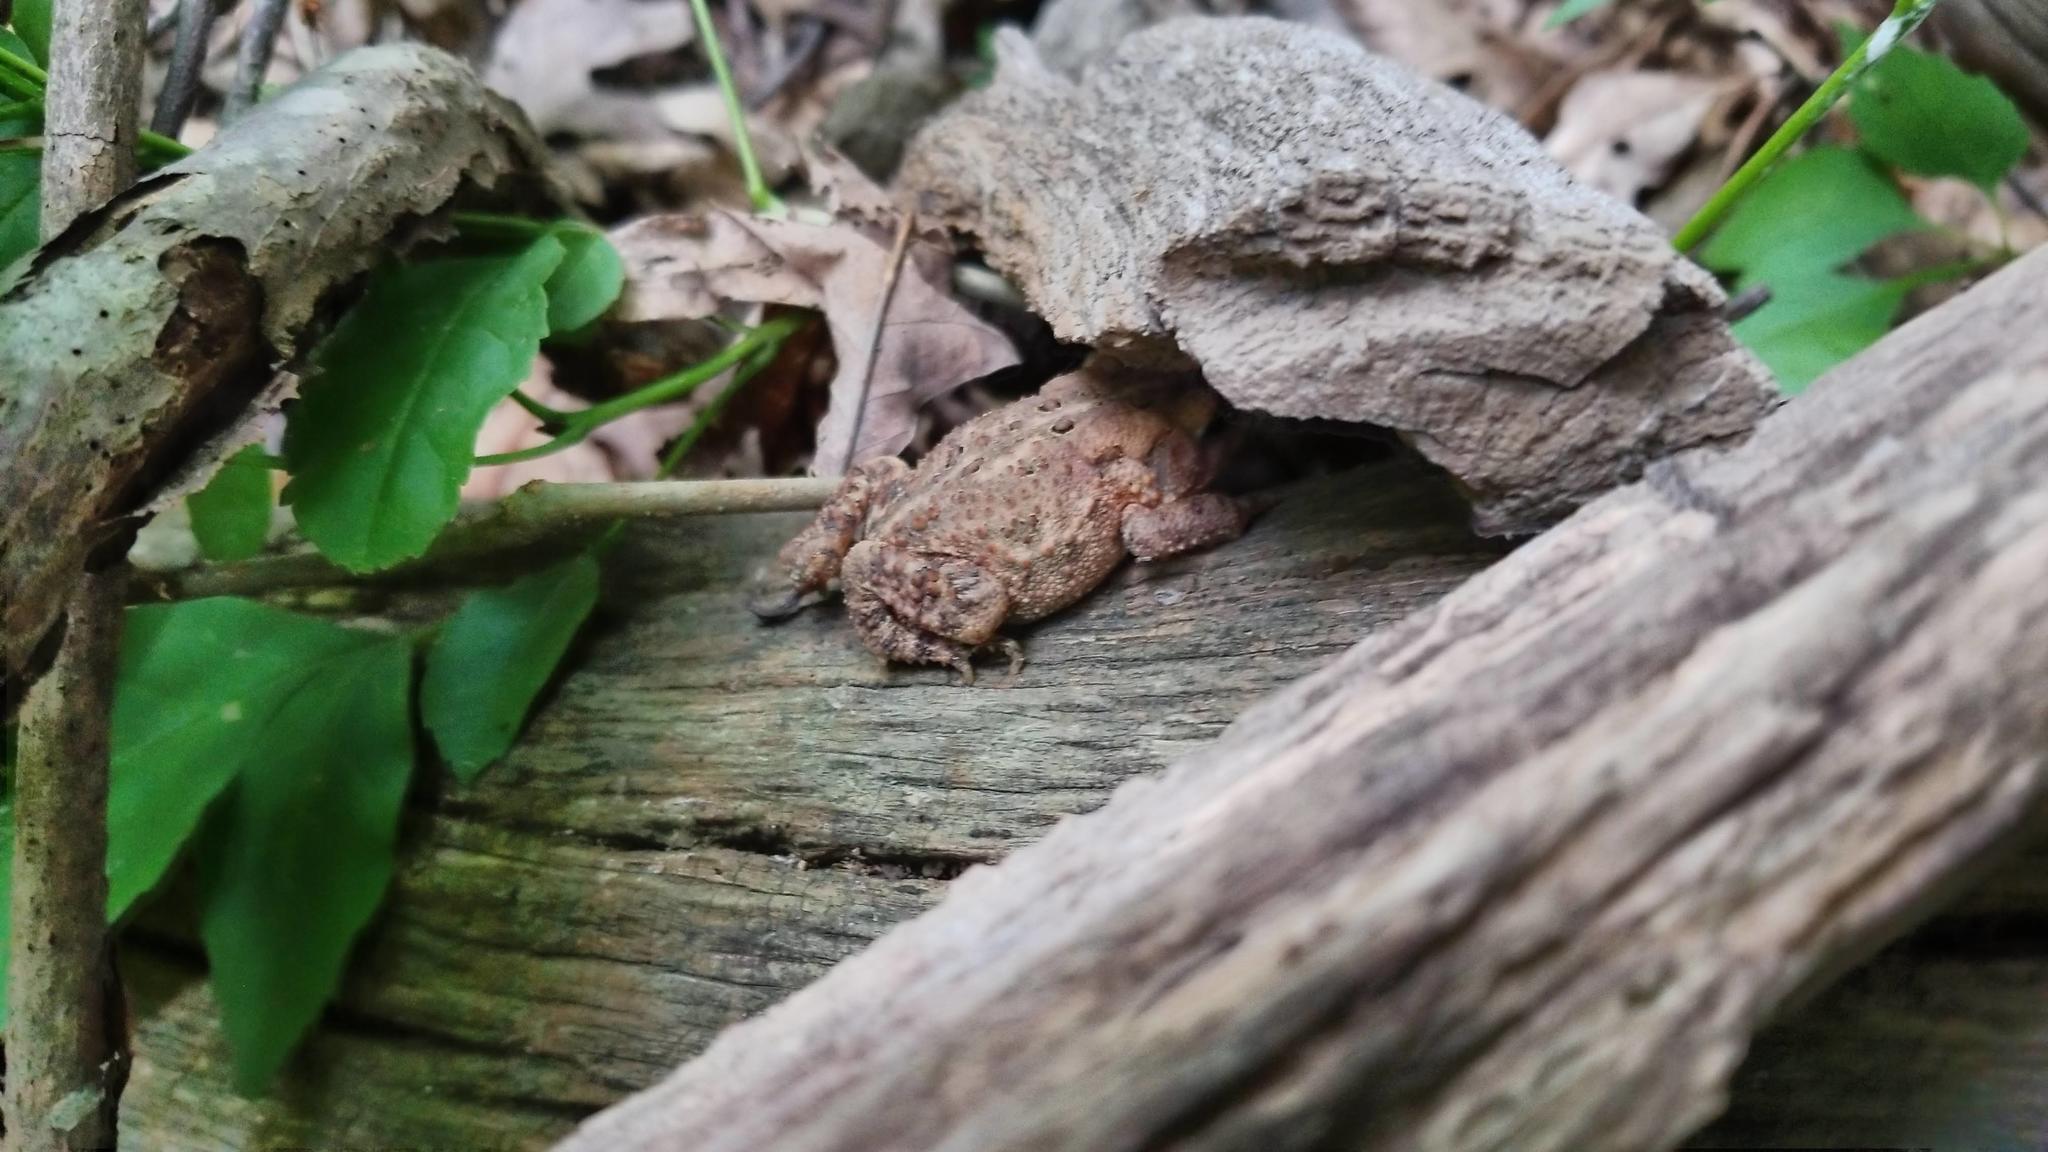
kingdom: Animalia
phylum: Chordata
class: Amphibia
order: Anura
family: Bufonidae
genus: Anaxyrus
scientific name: Anaxyrus americanus
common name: American toad
